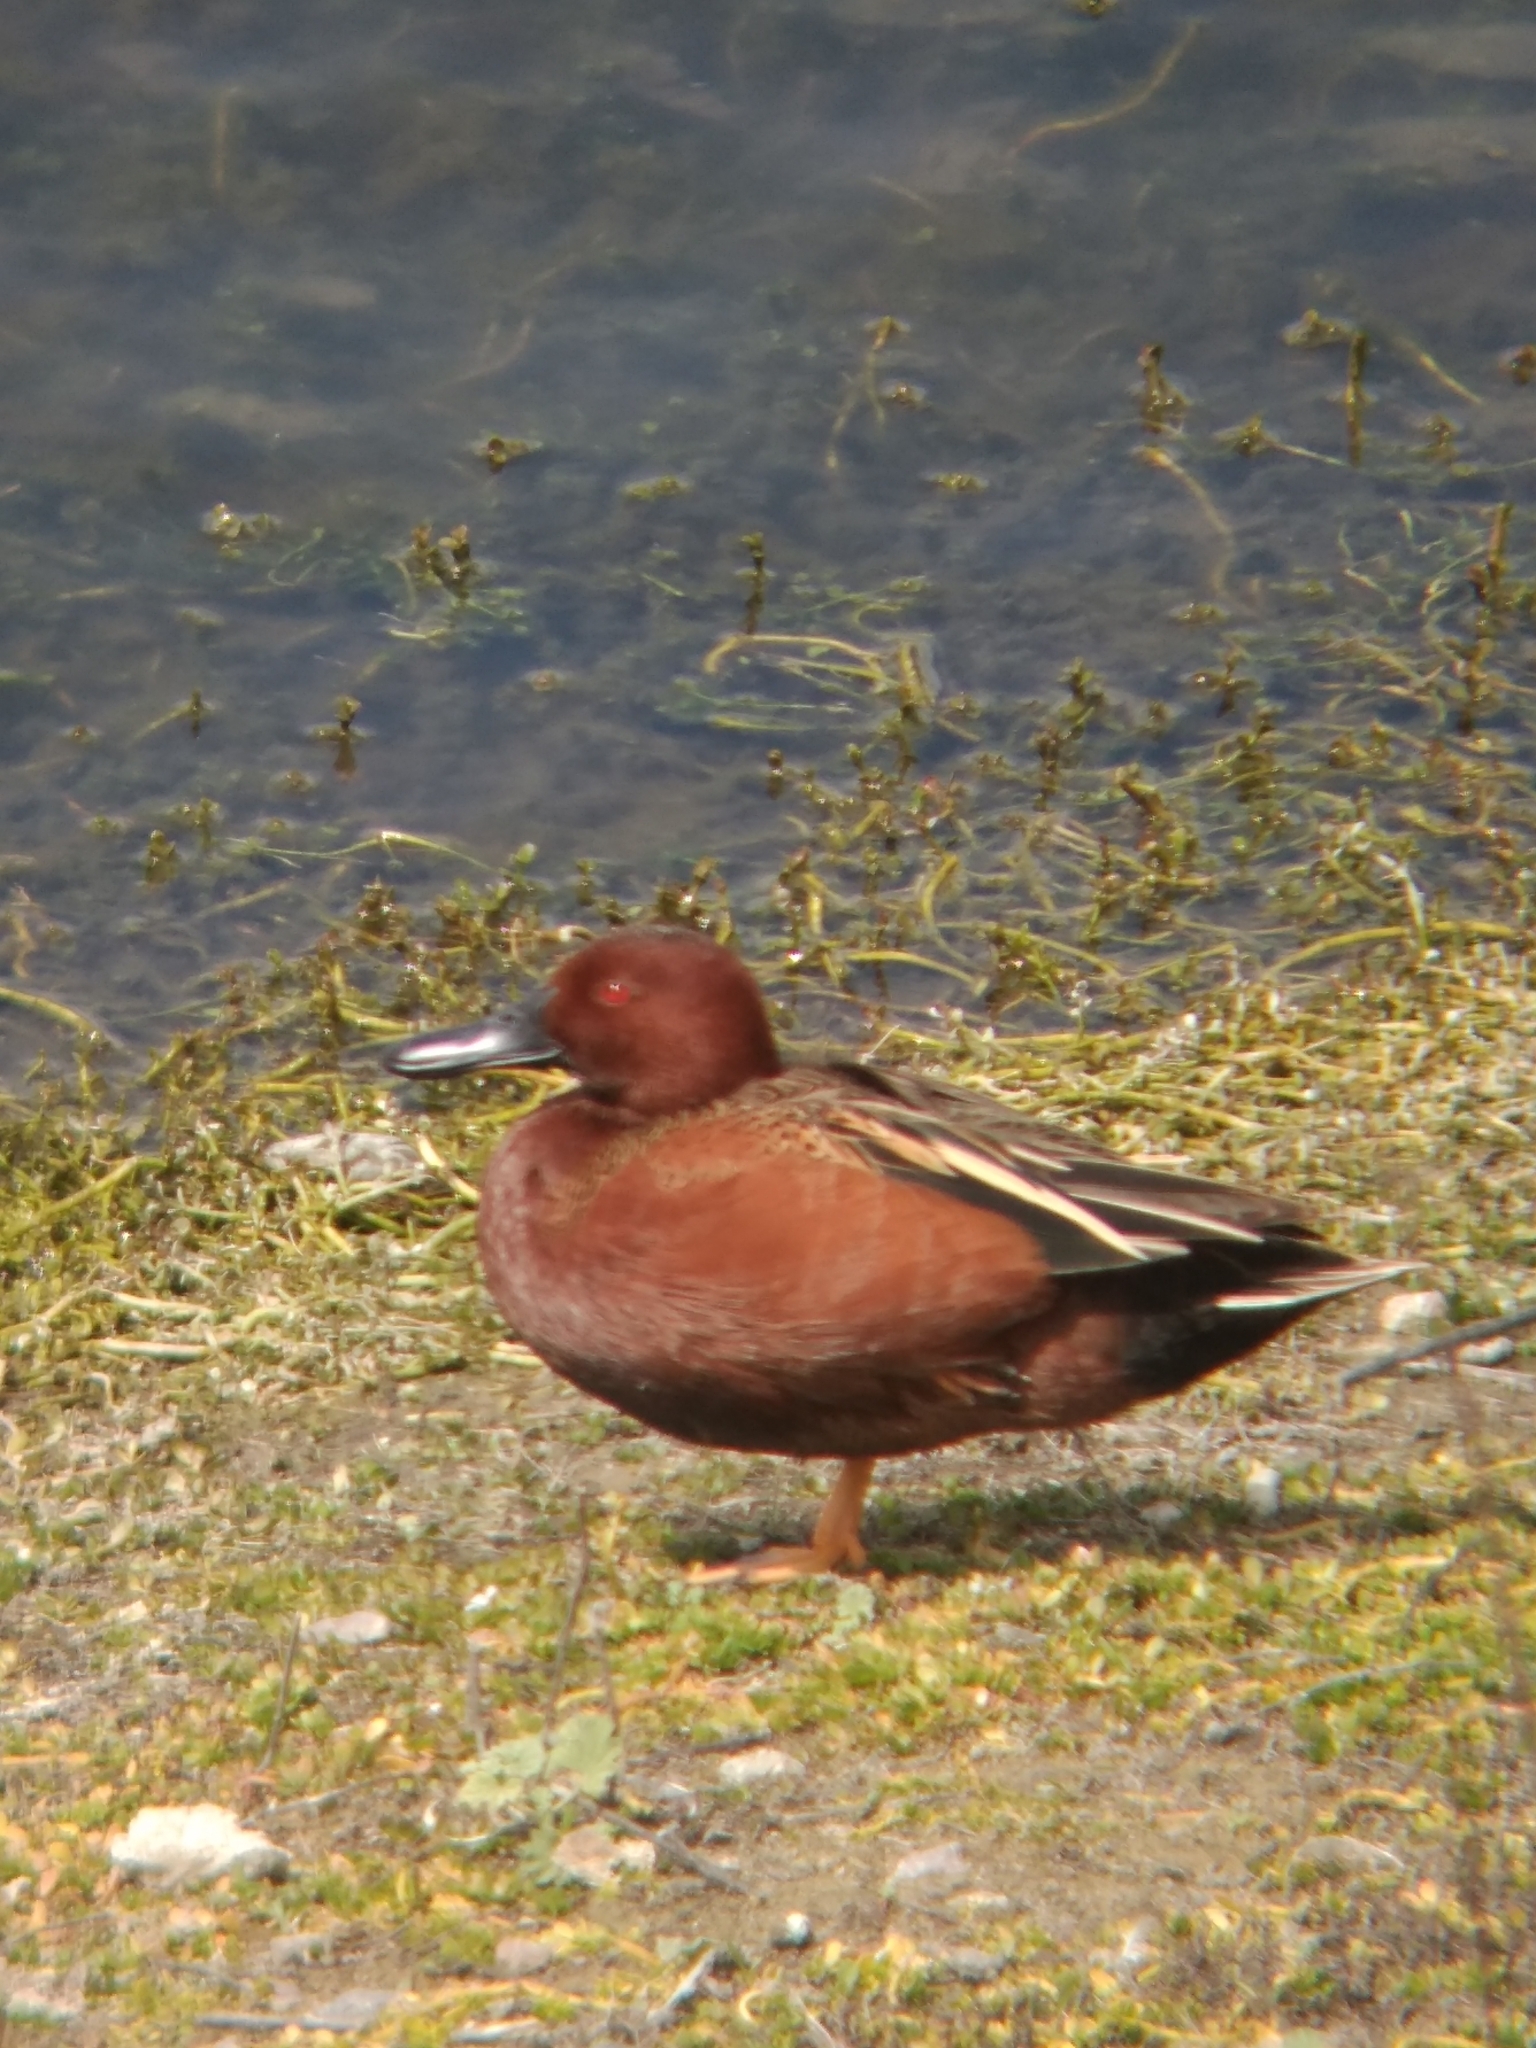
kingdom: Animalia
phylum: Chordata
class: Aves
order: Anseriformes
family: Anatidae
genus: Spatula
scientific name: Spatula cyanoptera
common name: Cinnamon teal
